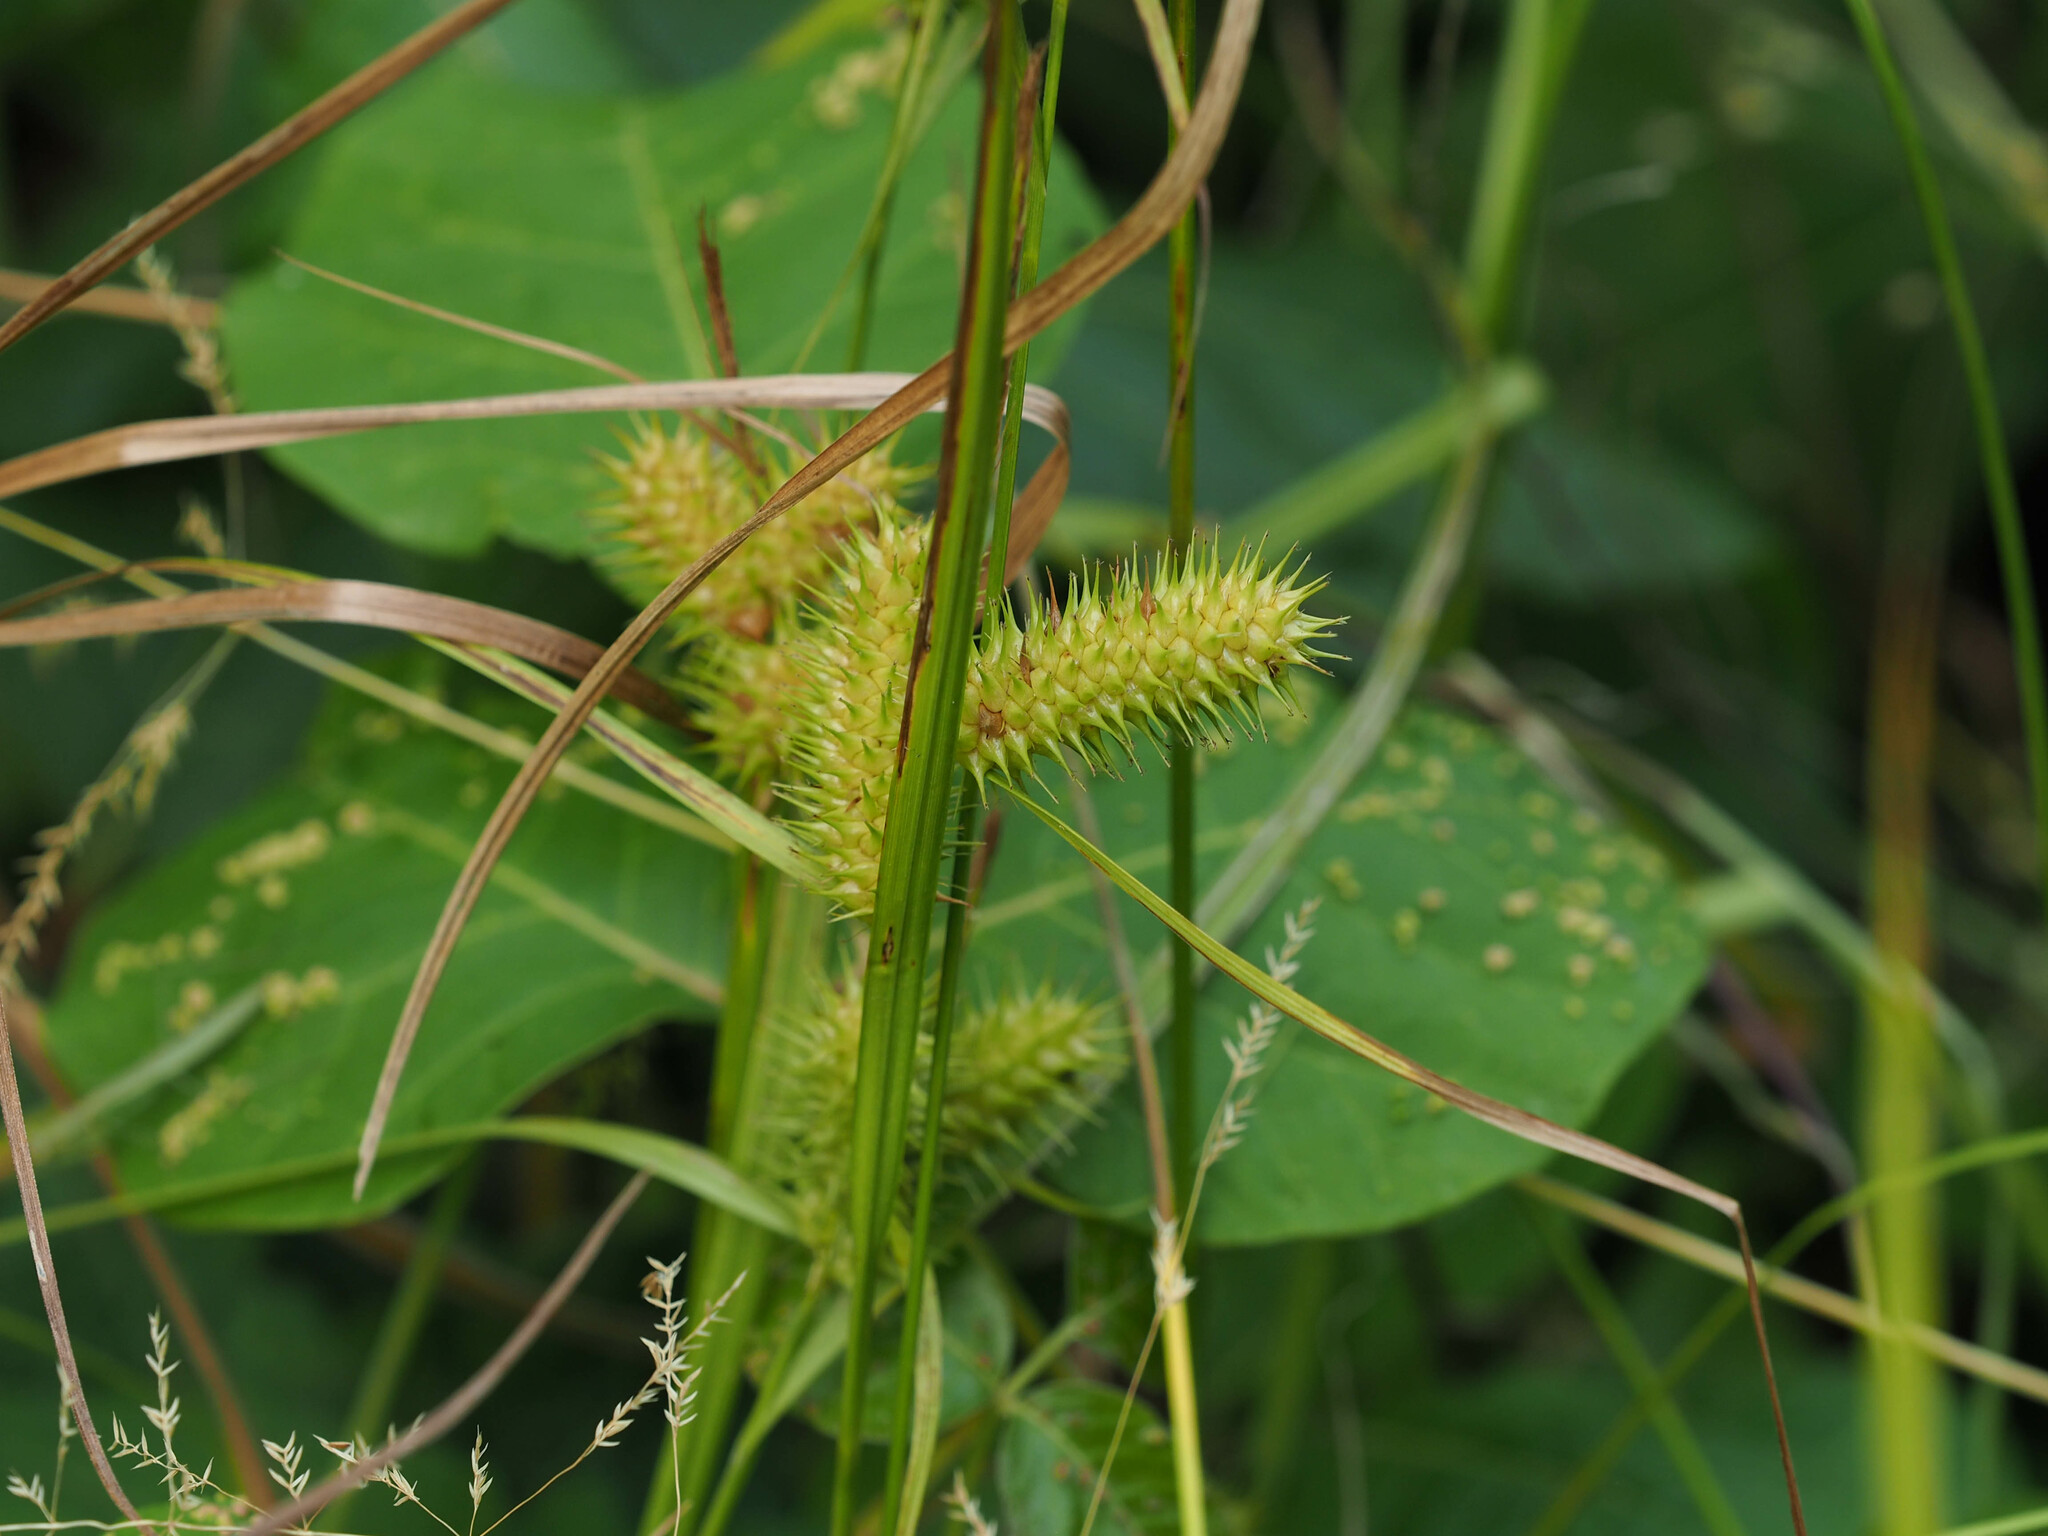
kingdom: Plantae
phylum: Tracheophyta
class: Liliopsida
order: Poales
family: Cyperaceae
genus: Carex
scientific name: Carex lurida
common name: Sallow sedge
